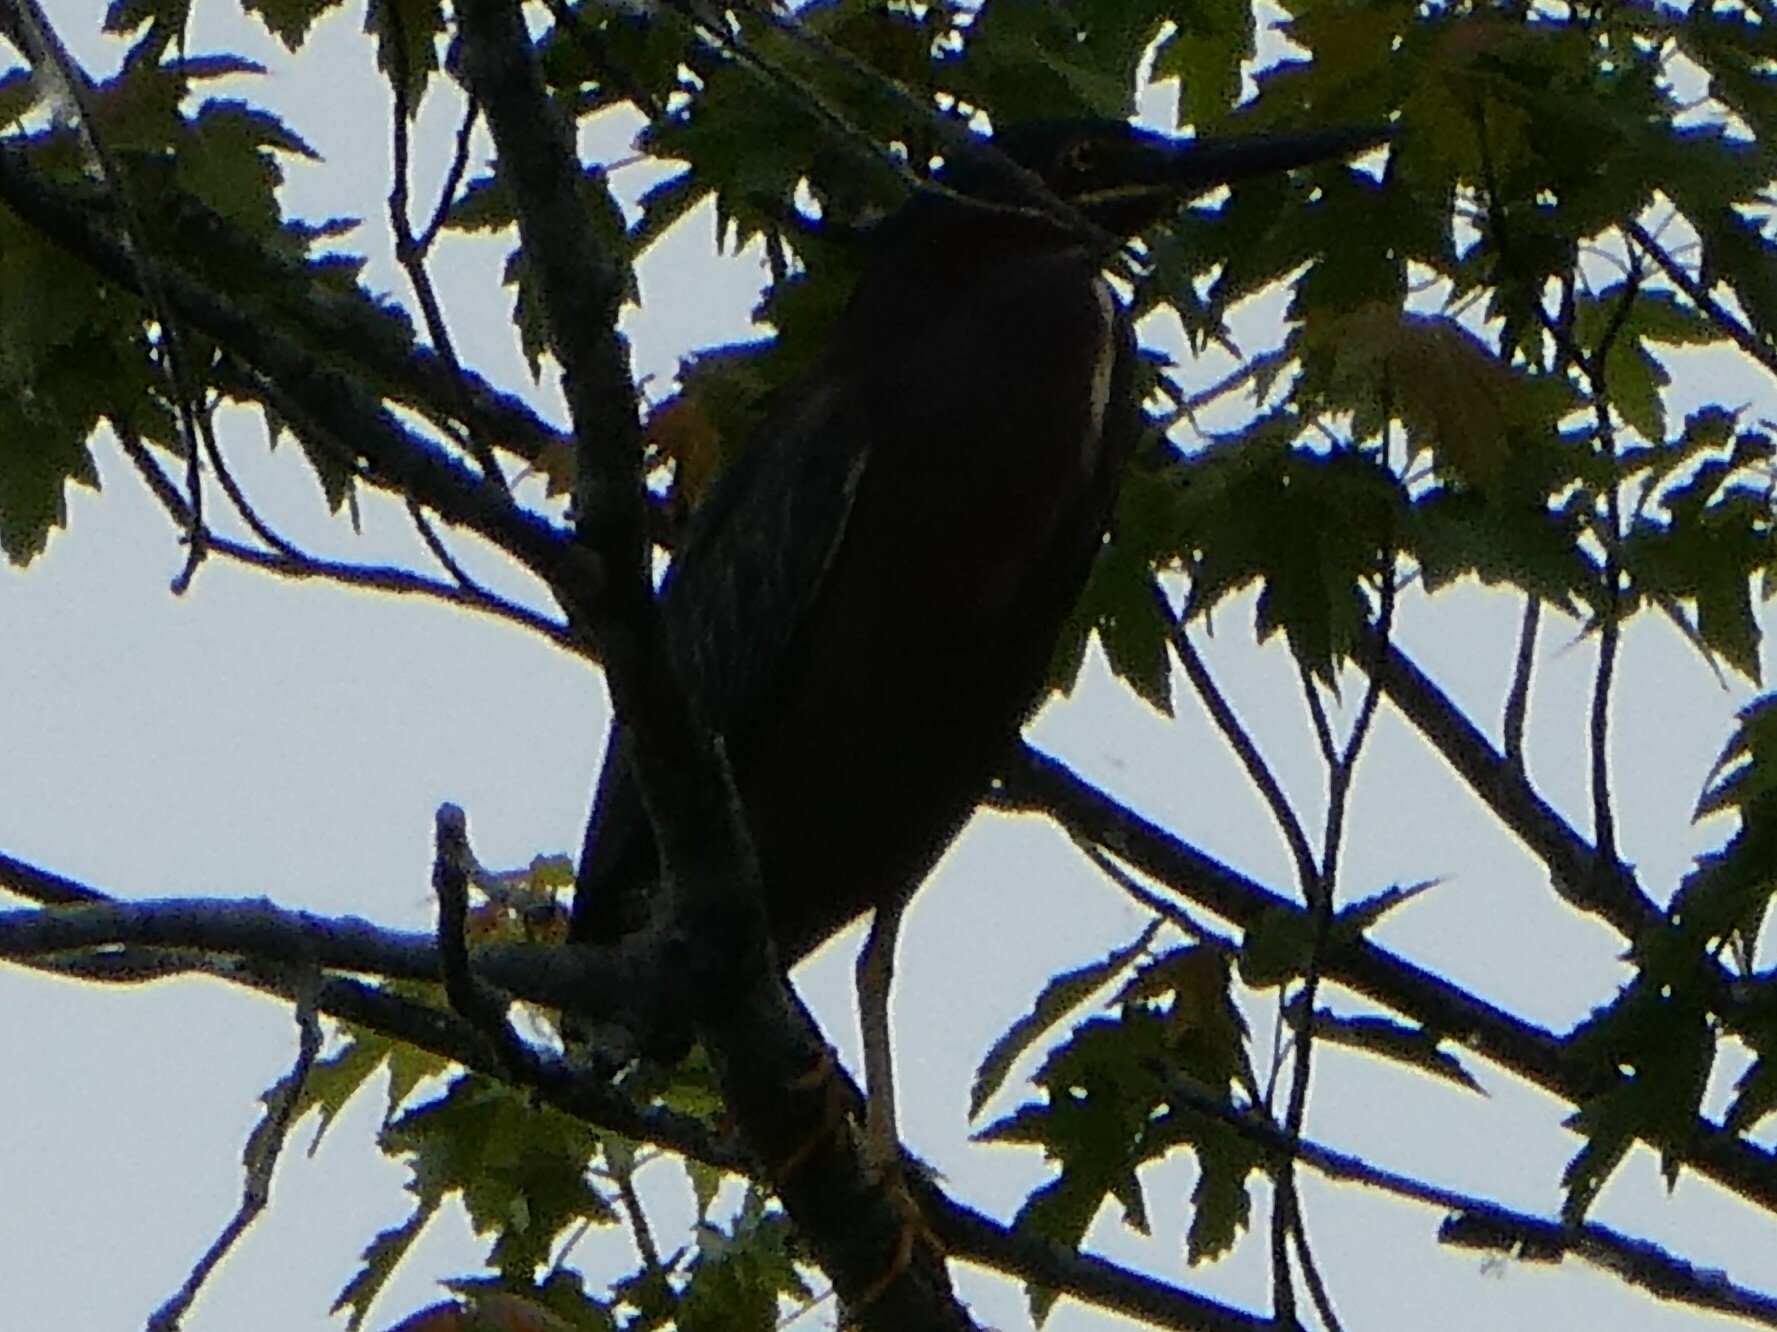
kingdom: Animalia
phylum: Chordata
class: Aves
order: Pelecaniformes
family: Ardeidae
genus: Butorides
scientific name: Butorides virescens
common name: Green heron
